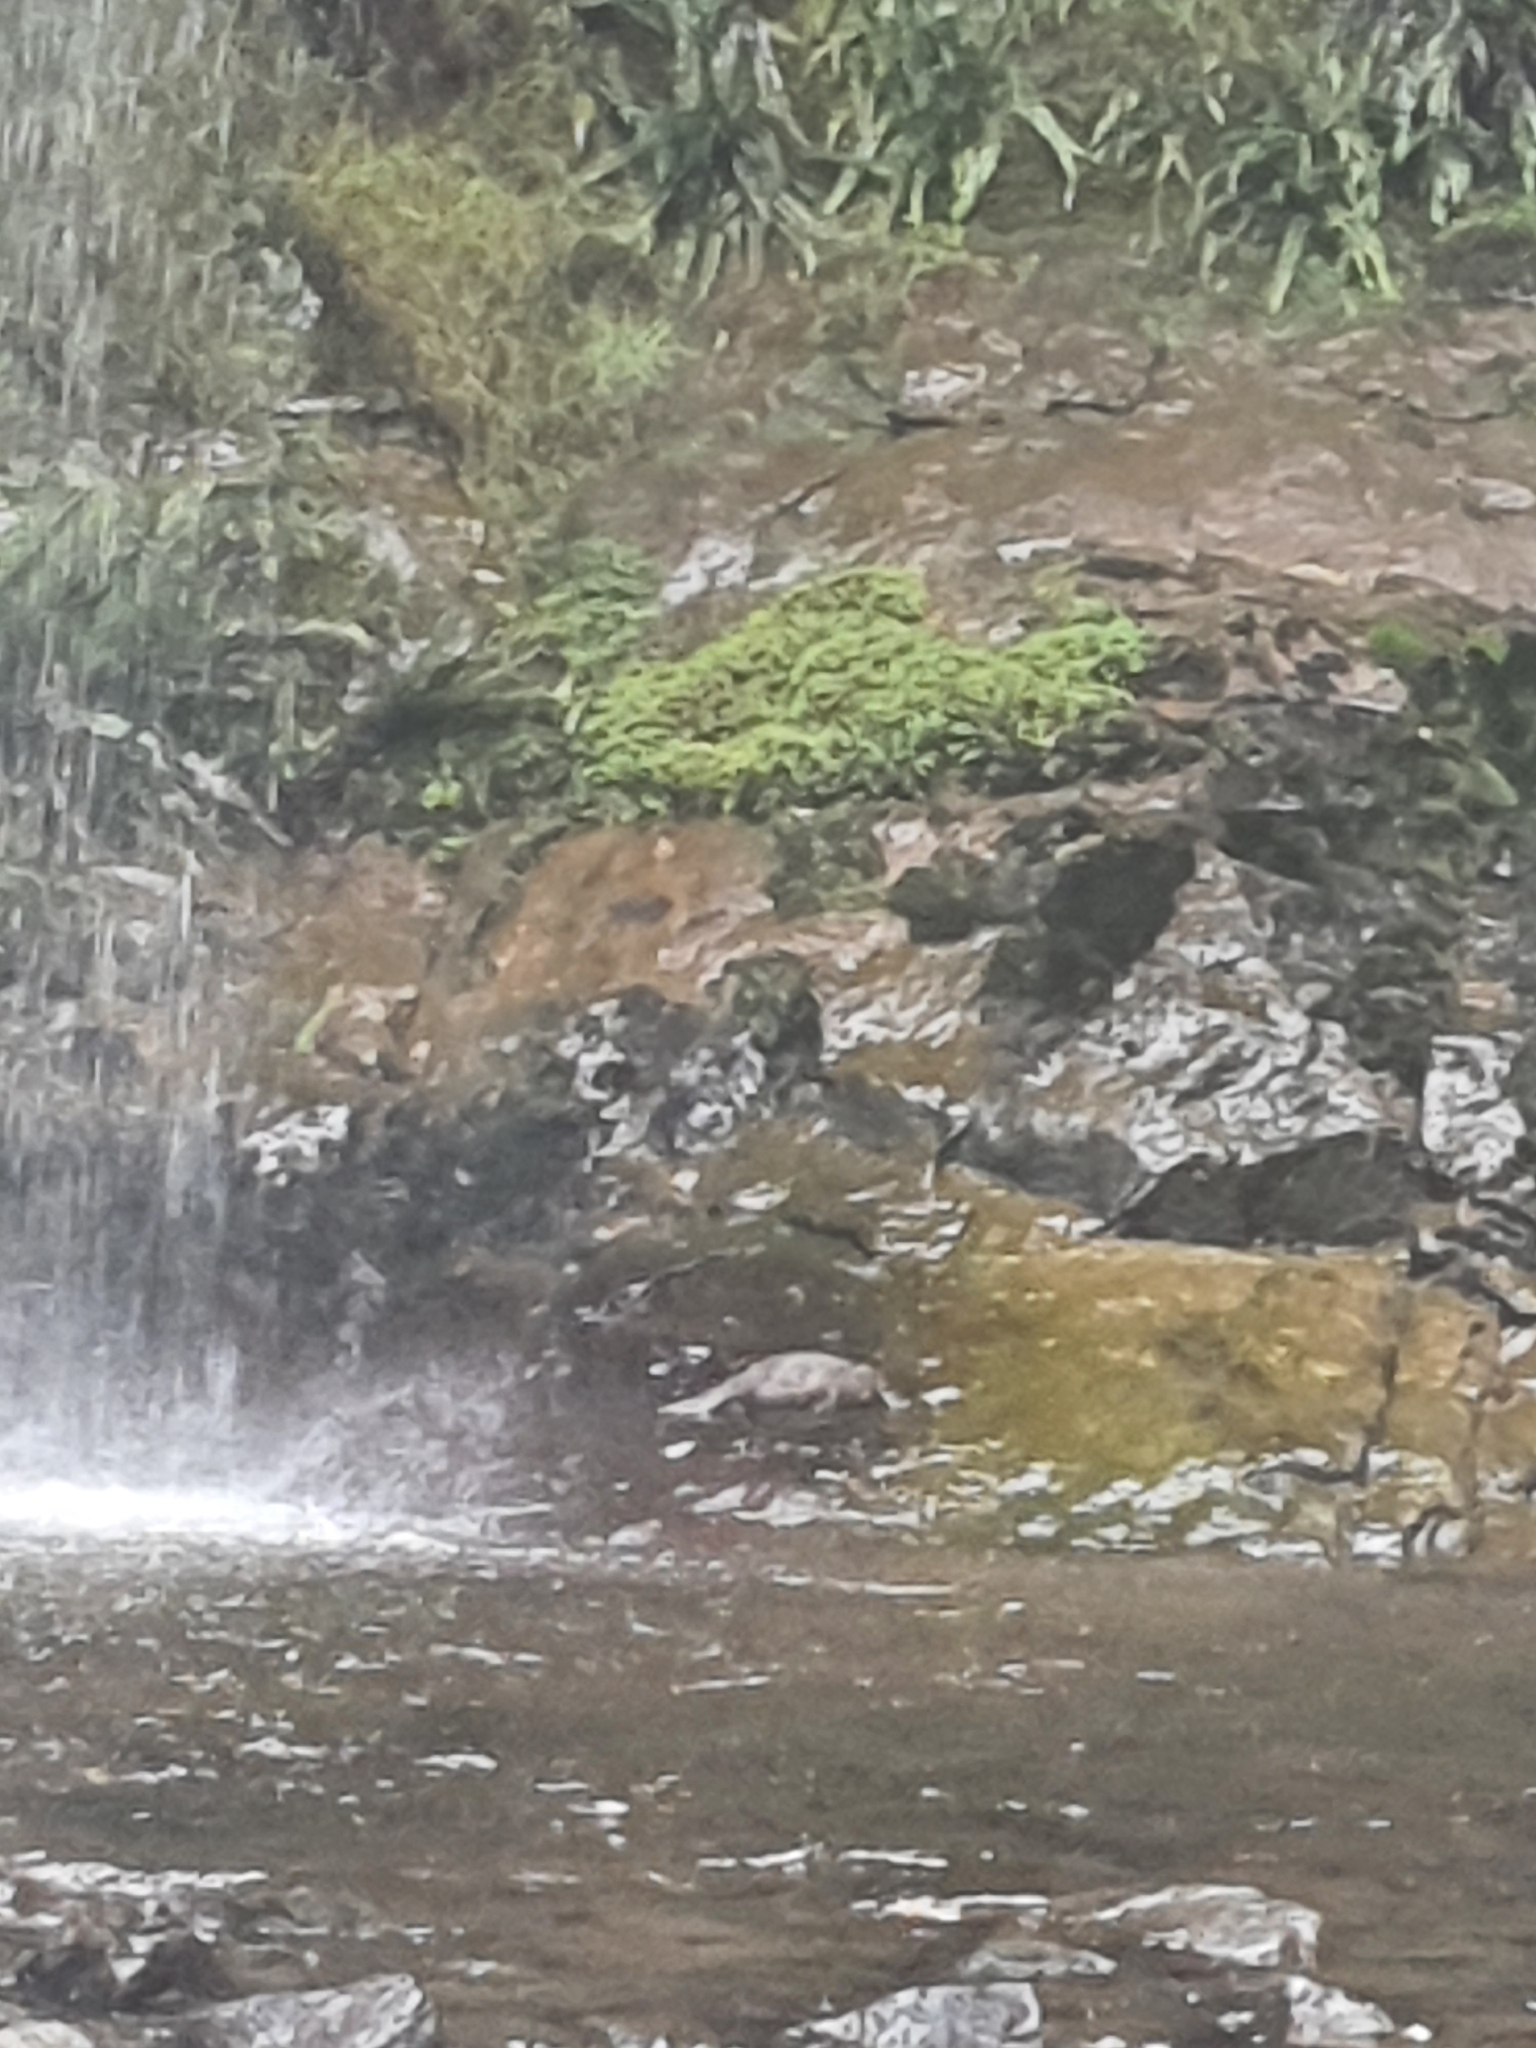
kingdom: Animalia
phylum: Chordata
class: Mammalia
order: Monotremata
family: Ornithorhynchidae
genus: Ornithorhynchus
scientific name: Ornithorhynchus anatinus
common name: Platypus
